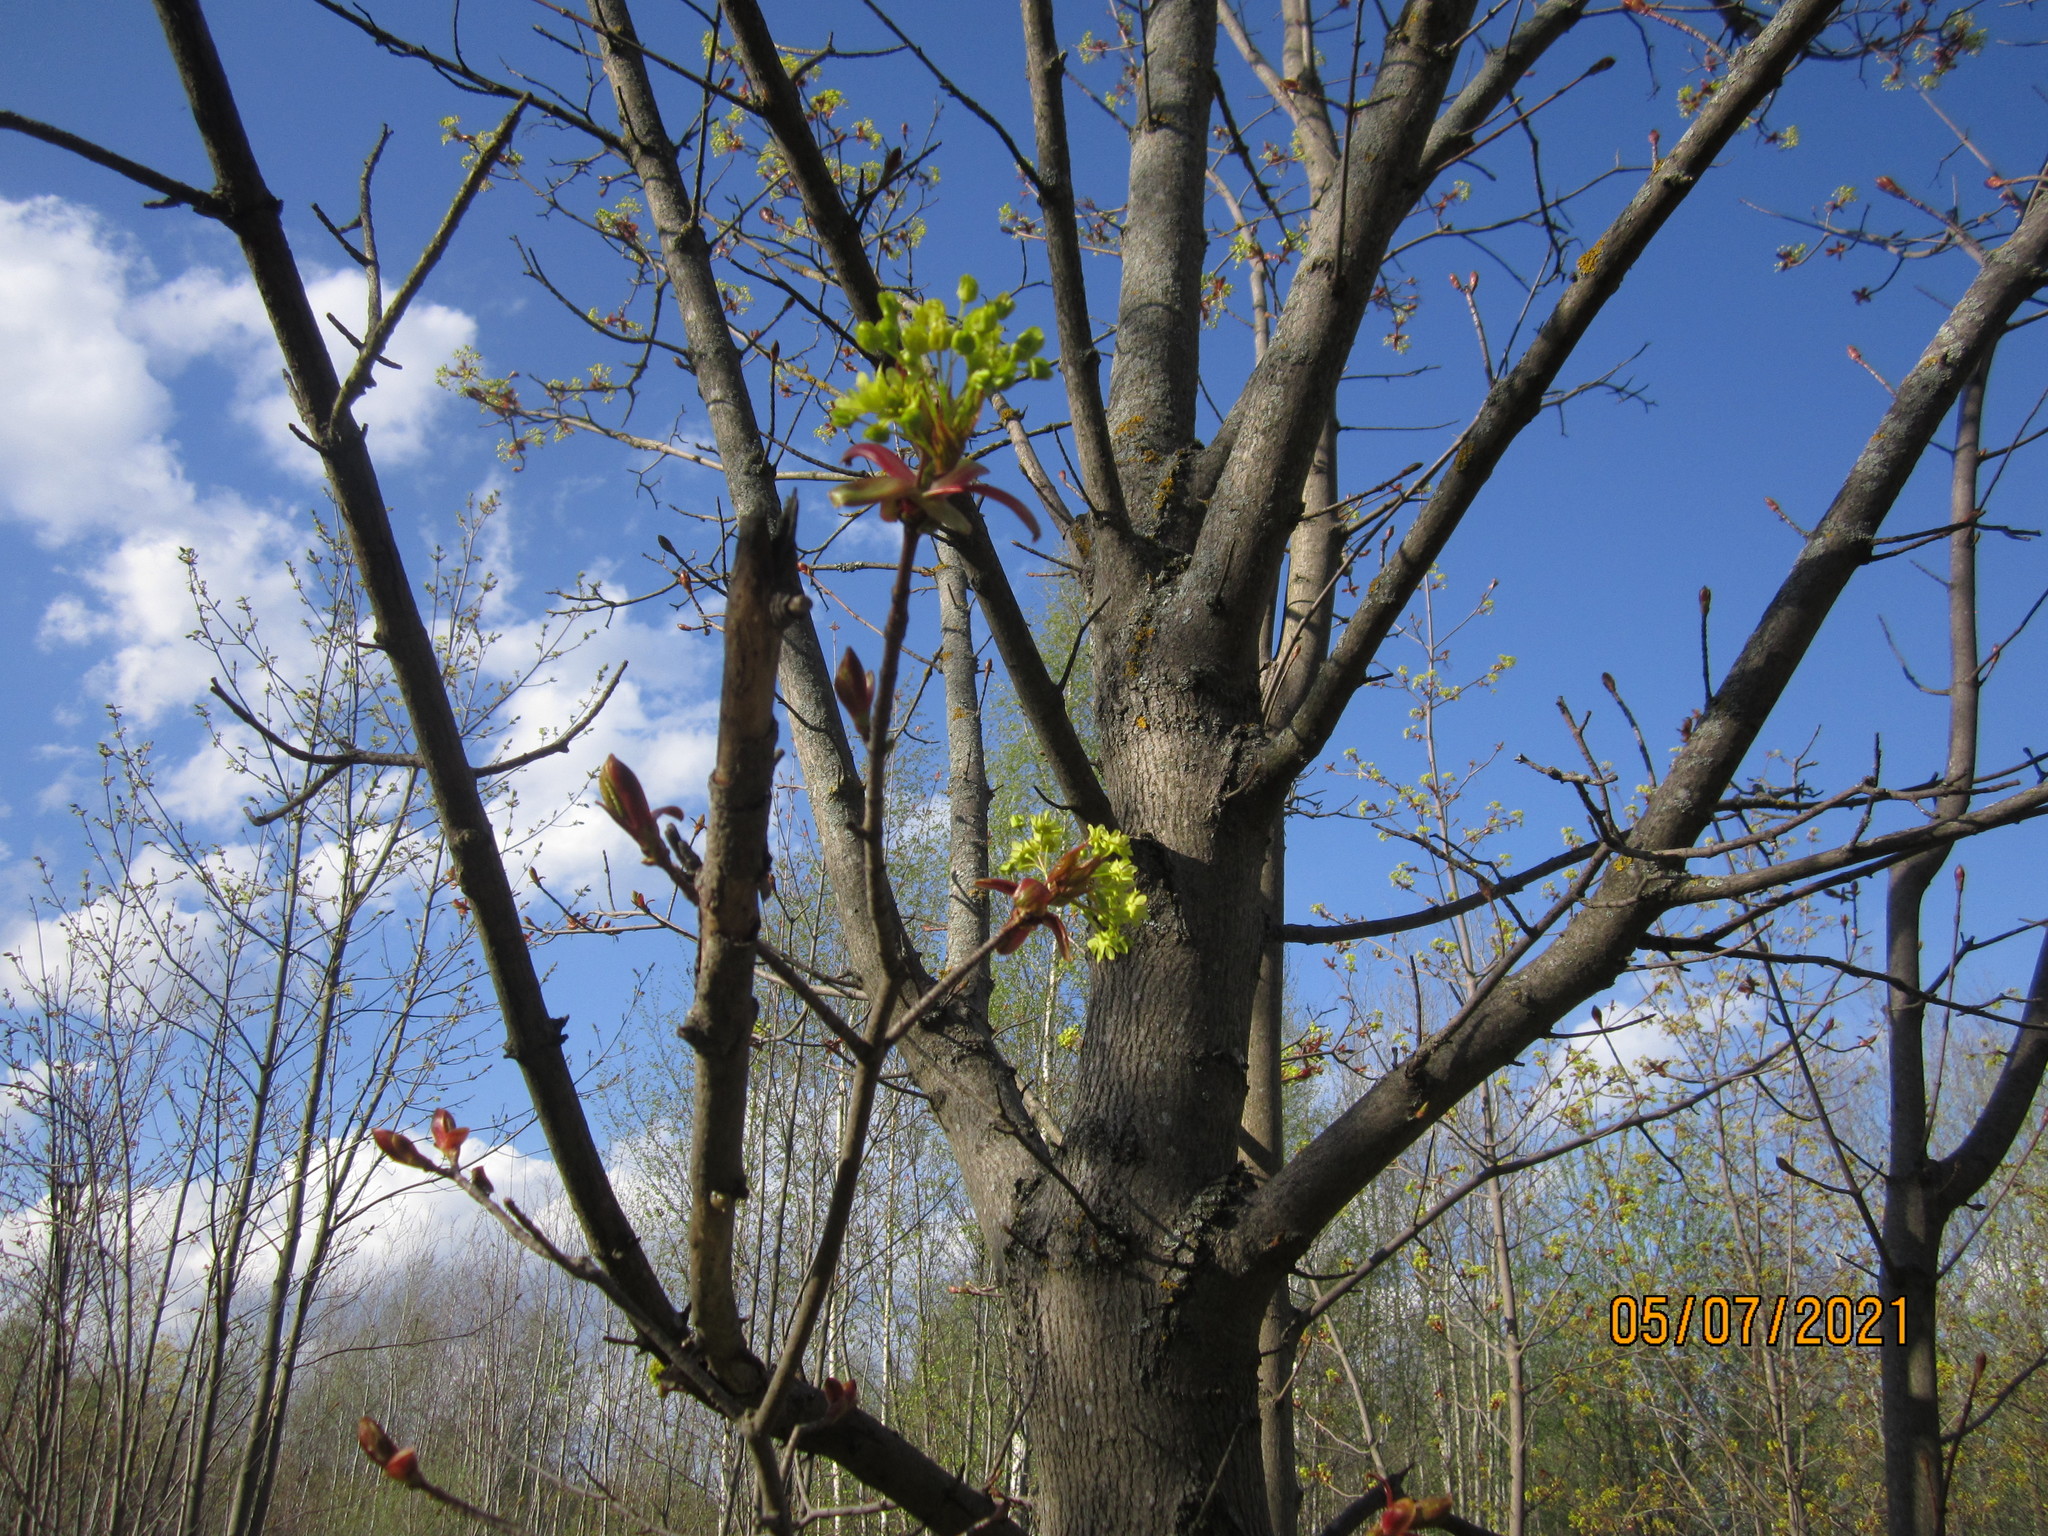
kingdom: Plantae
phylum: Tracheophyta
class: Magnoliopsida
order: Sapindales
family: Sapindaceae
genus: Acer
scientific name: Acer platanoides
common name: Norway maple
